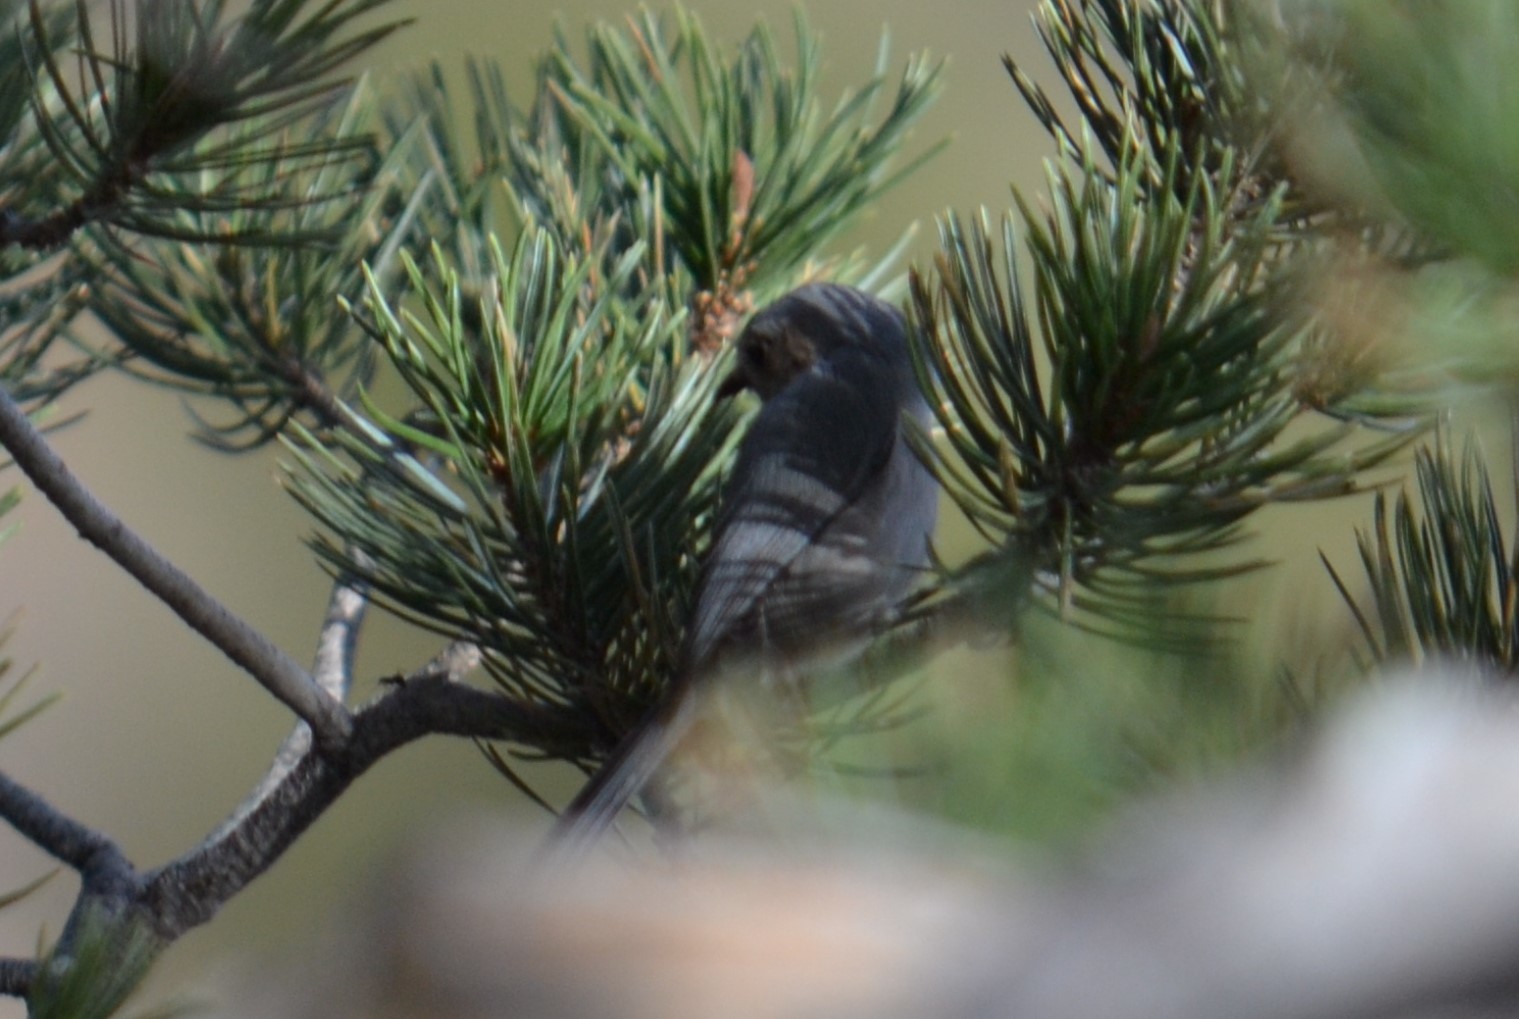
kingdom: Animalia
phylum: Chordata
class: Aves
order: Passeriformes
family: Aegithalidae
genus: Psaltriparus
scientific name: Psaltriparus minimus
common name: American bushtit
